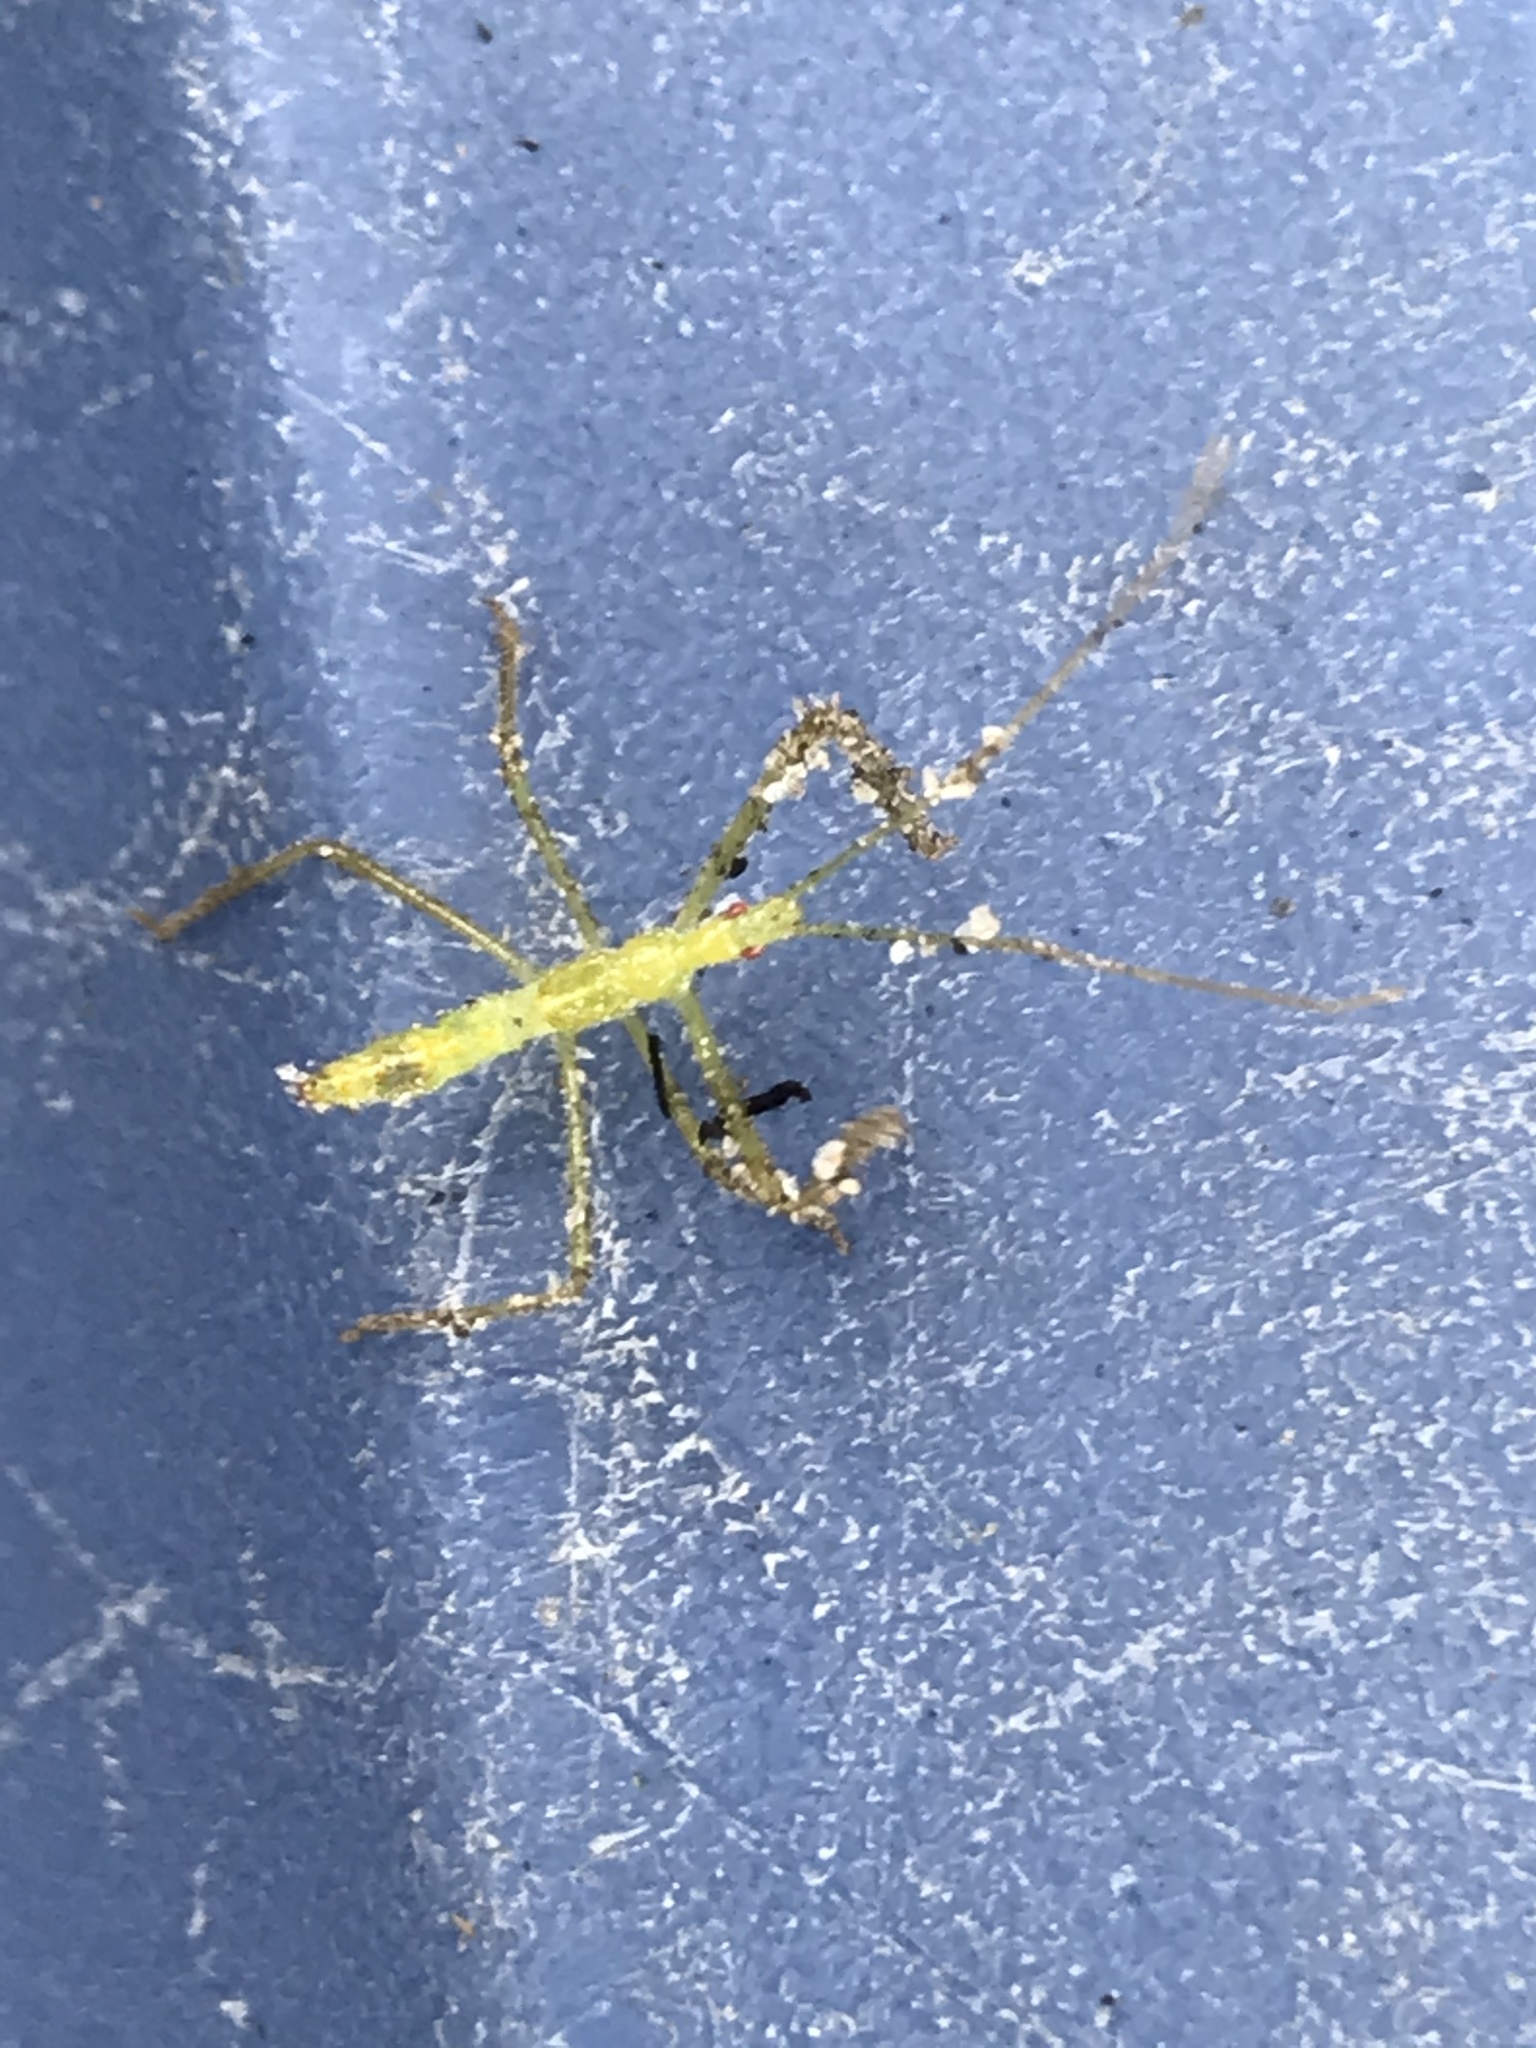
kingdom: Animalia
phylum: Arthropoda
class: Insecta
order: Hemiptera
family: Reduviidae
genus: Zelus
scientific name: Zelus luridus
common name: Pale green assassin bug
